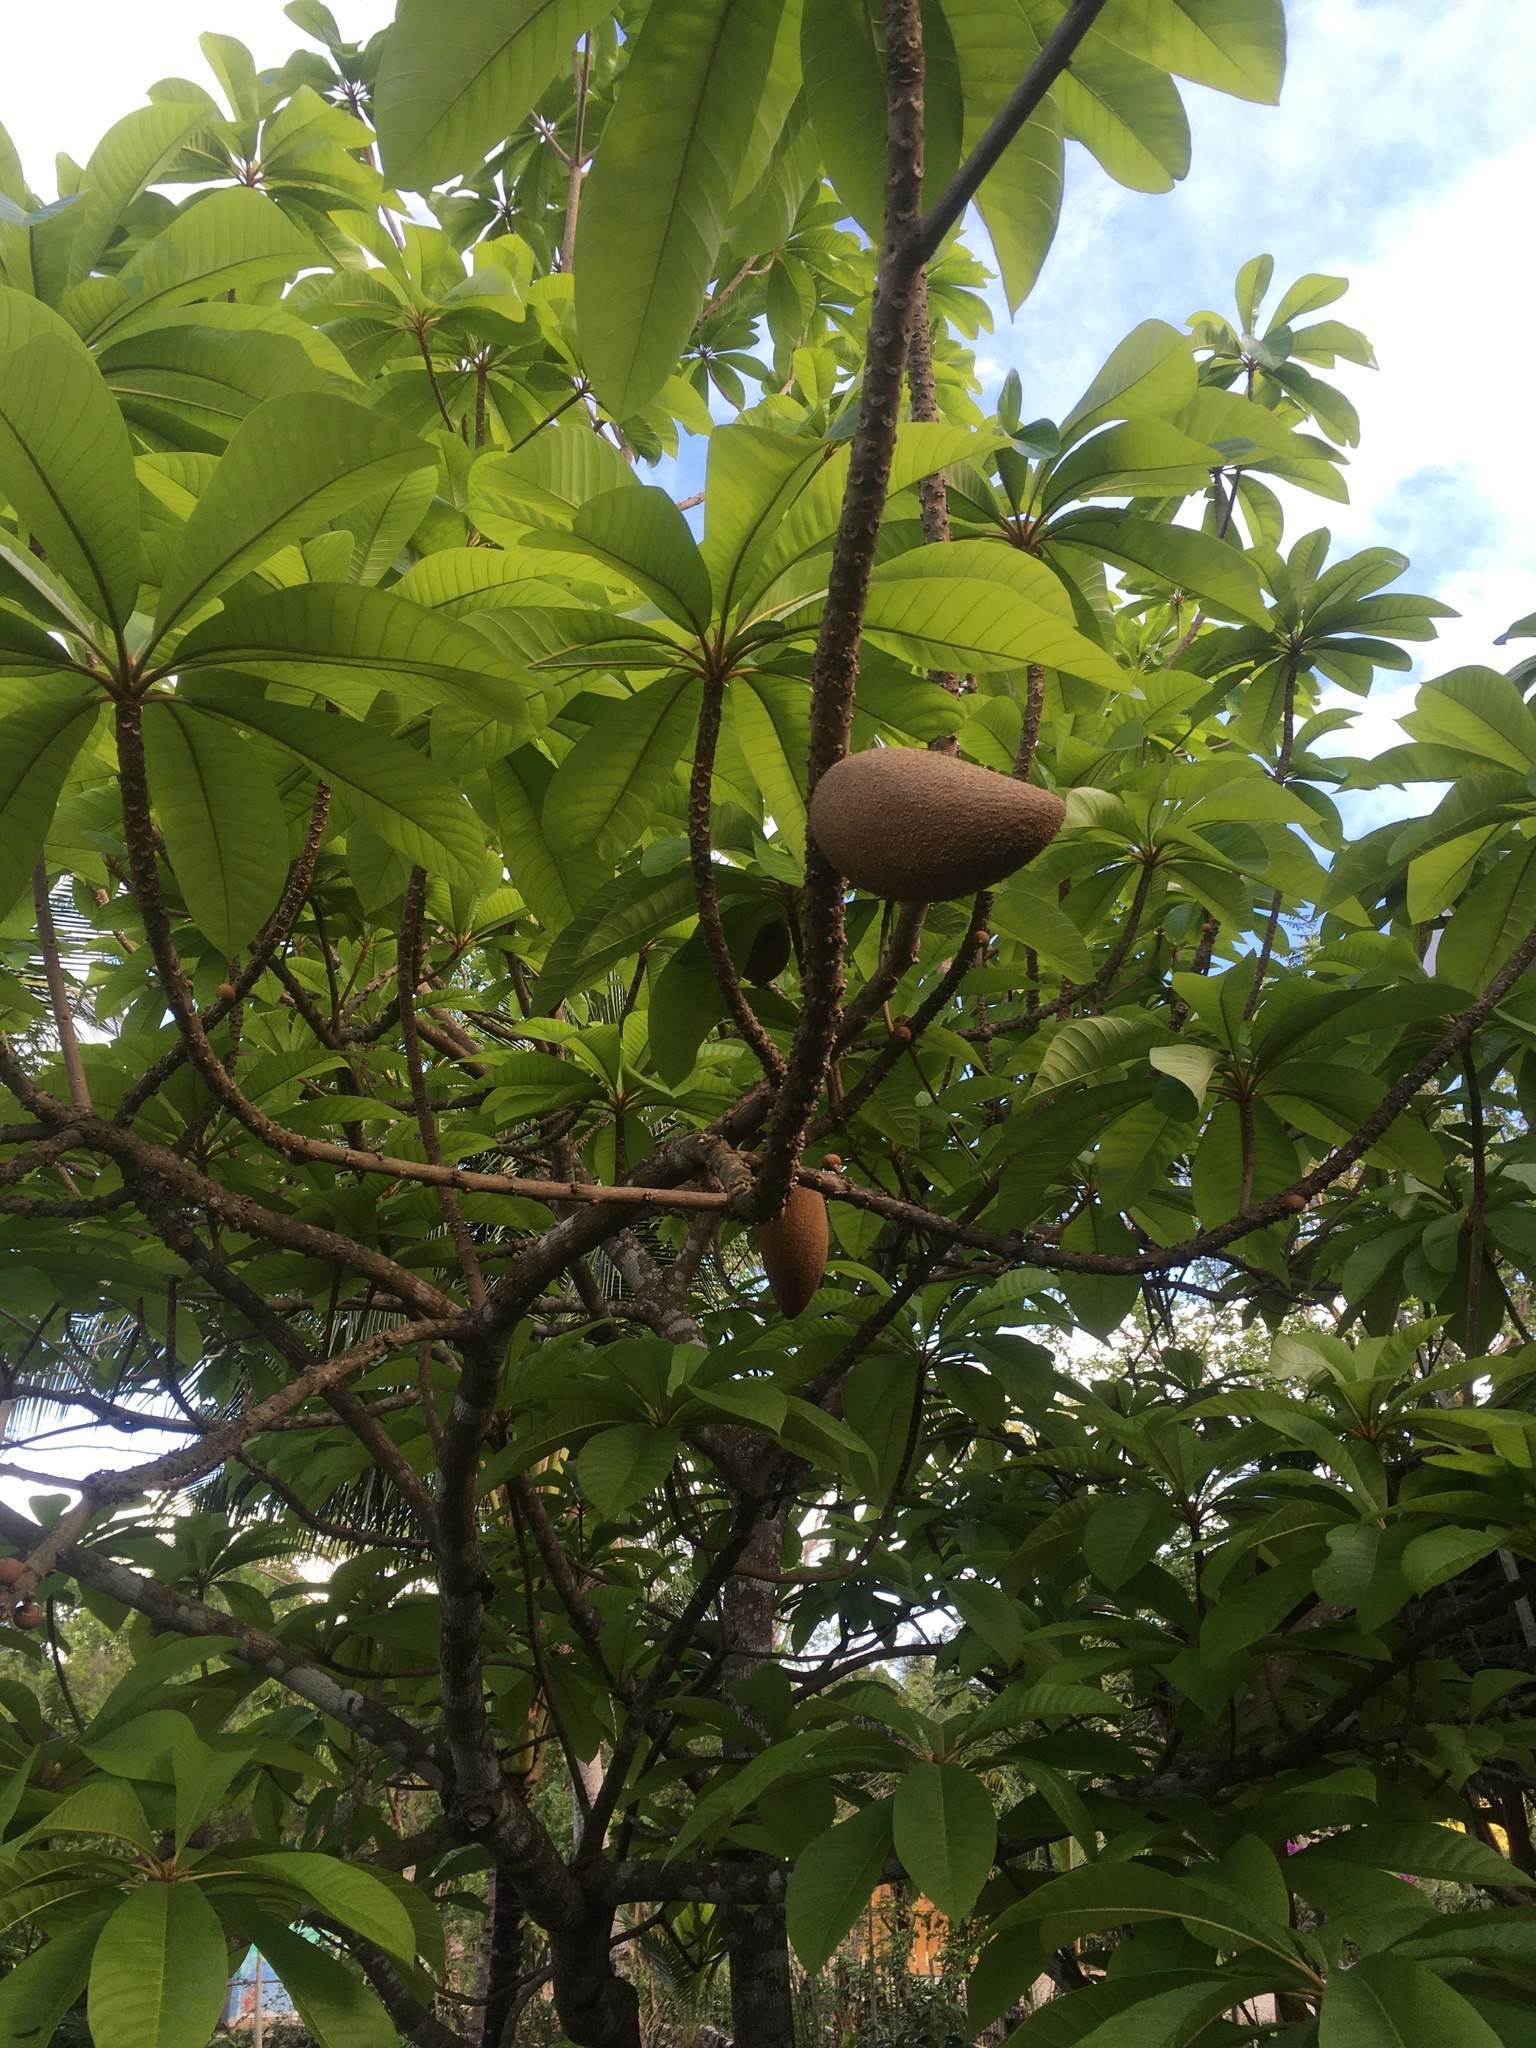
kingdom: Plantae
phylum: Tracheophyta
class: Magnoliopsida
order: Ericales
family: Sapotaceae
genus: Pouteria
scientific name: Pouteria sapota
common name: Mamey
